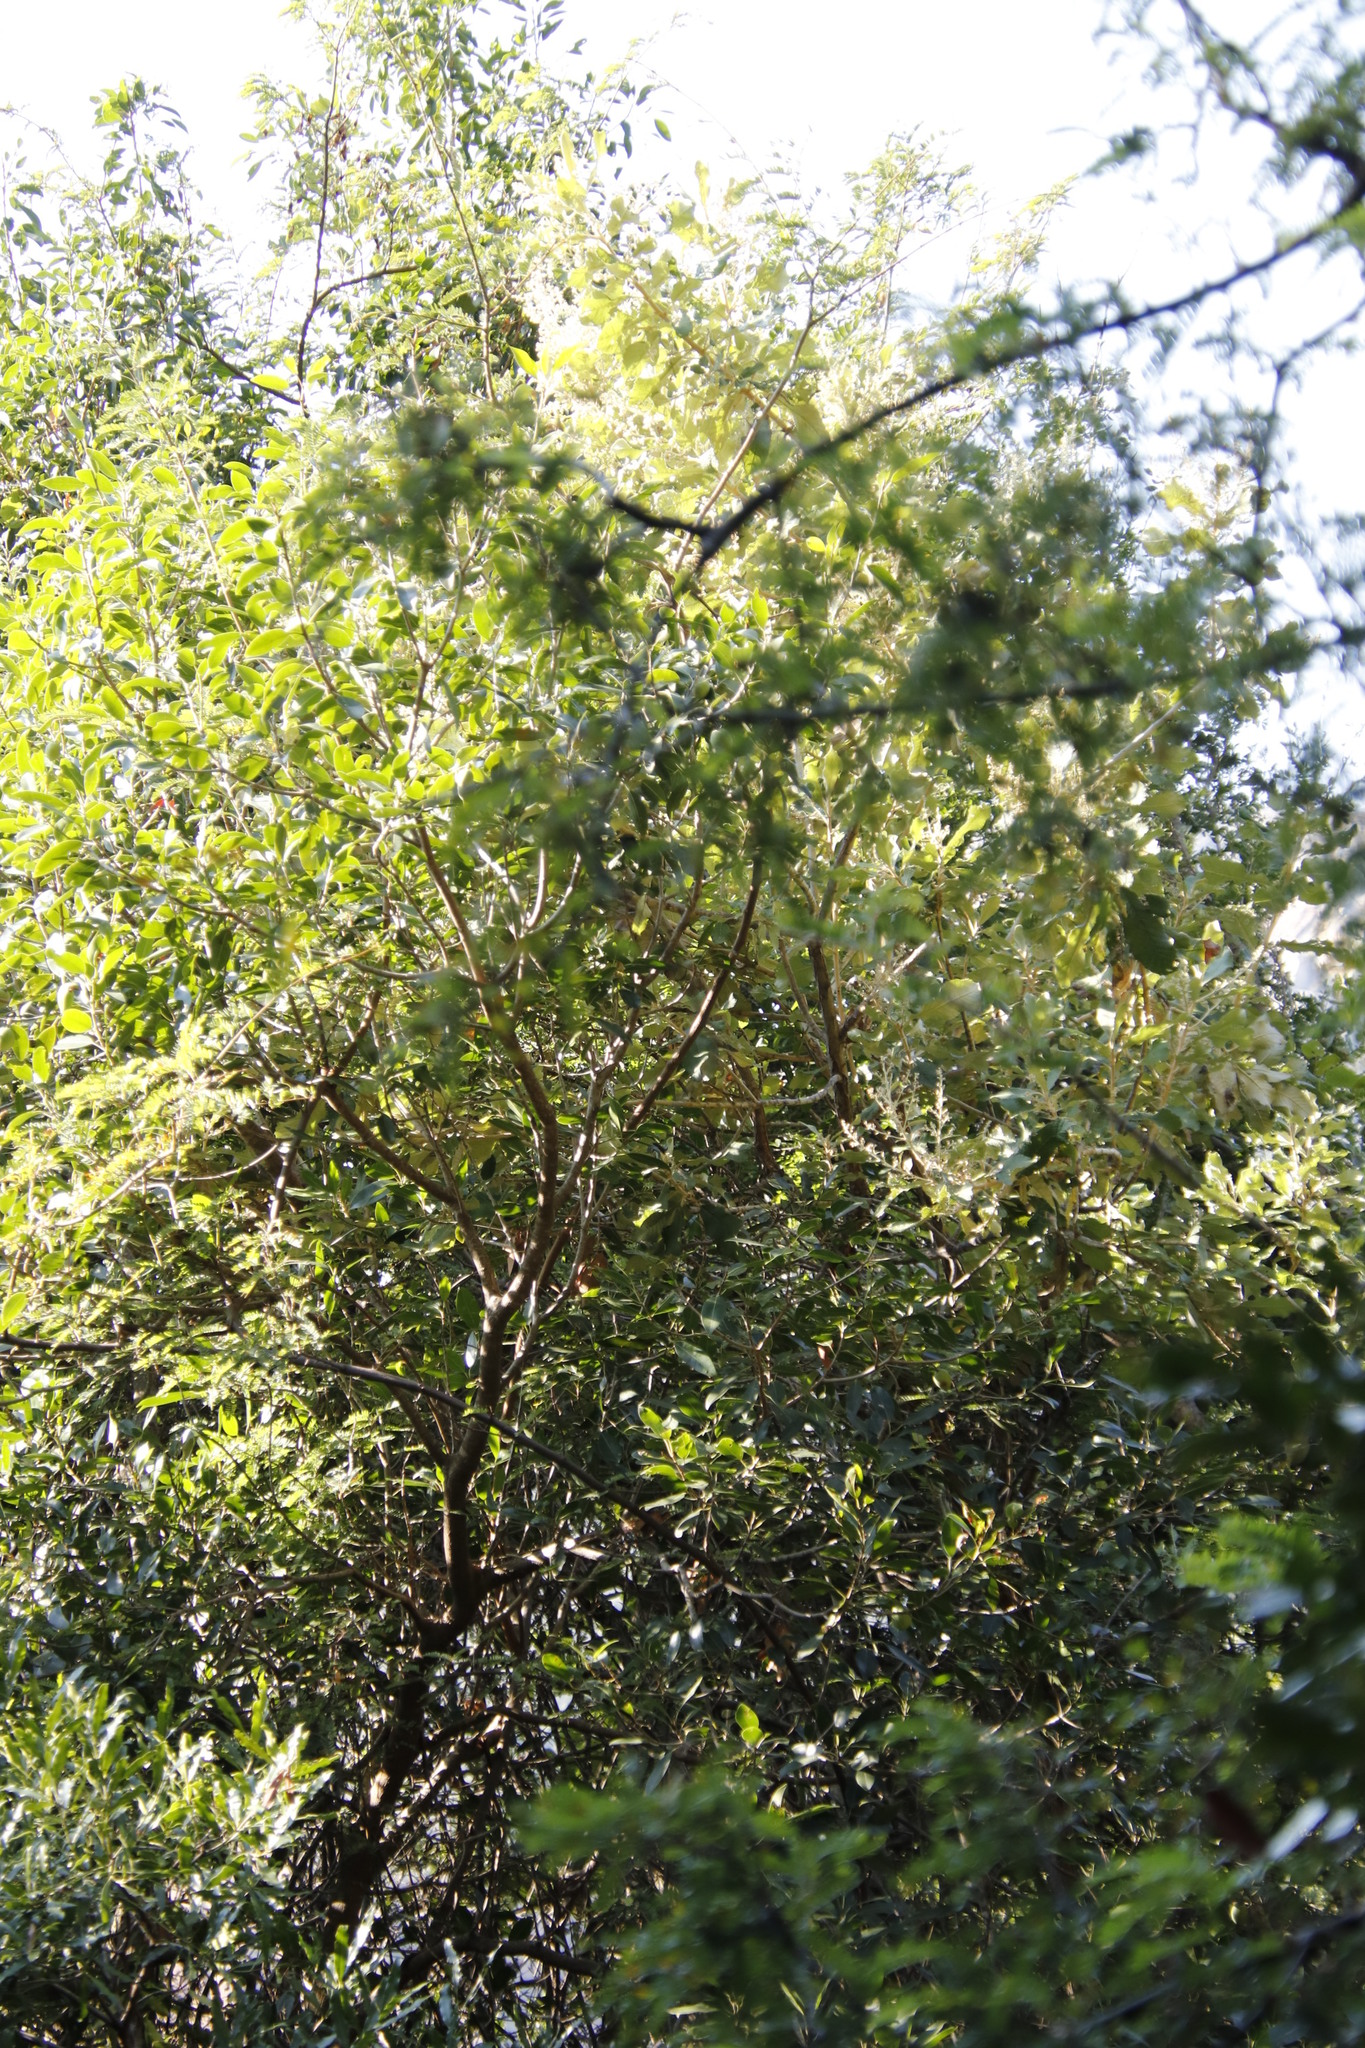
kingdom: Plantae
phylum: Tracheophyta
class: Magnoliopsida
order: Asterales
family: Asteraceae
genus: Brachylaena
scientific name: Brachylaena discolor
